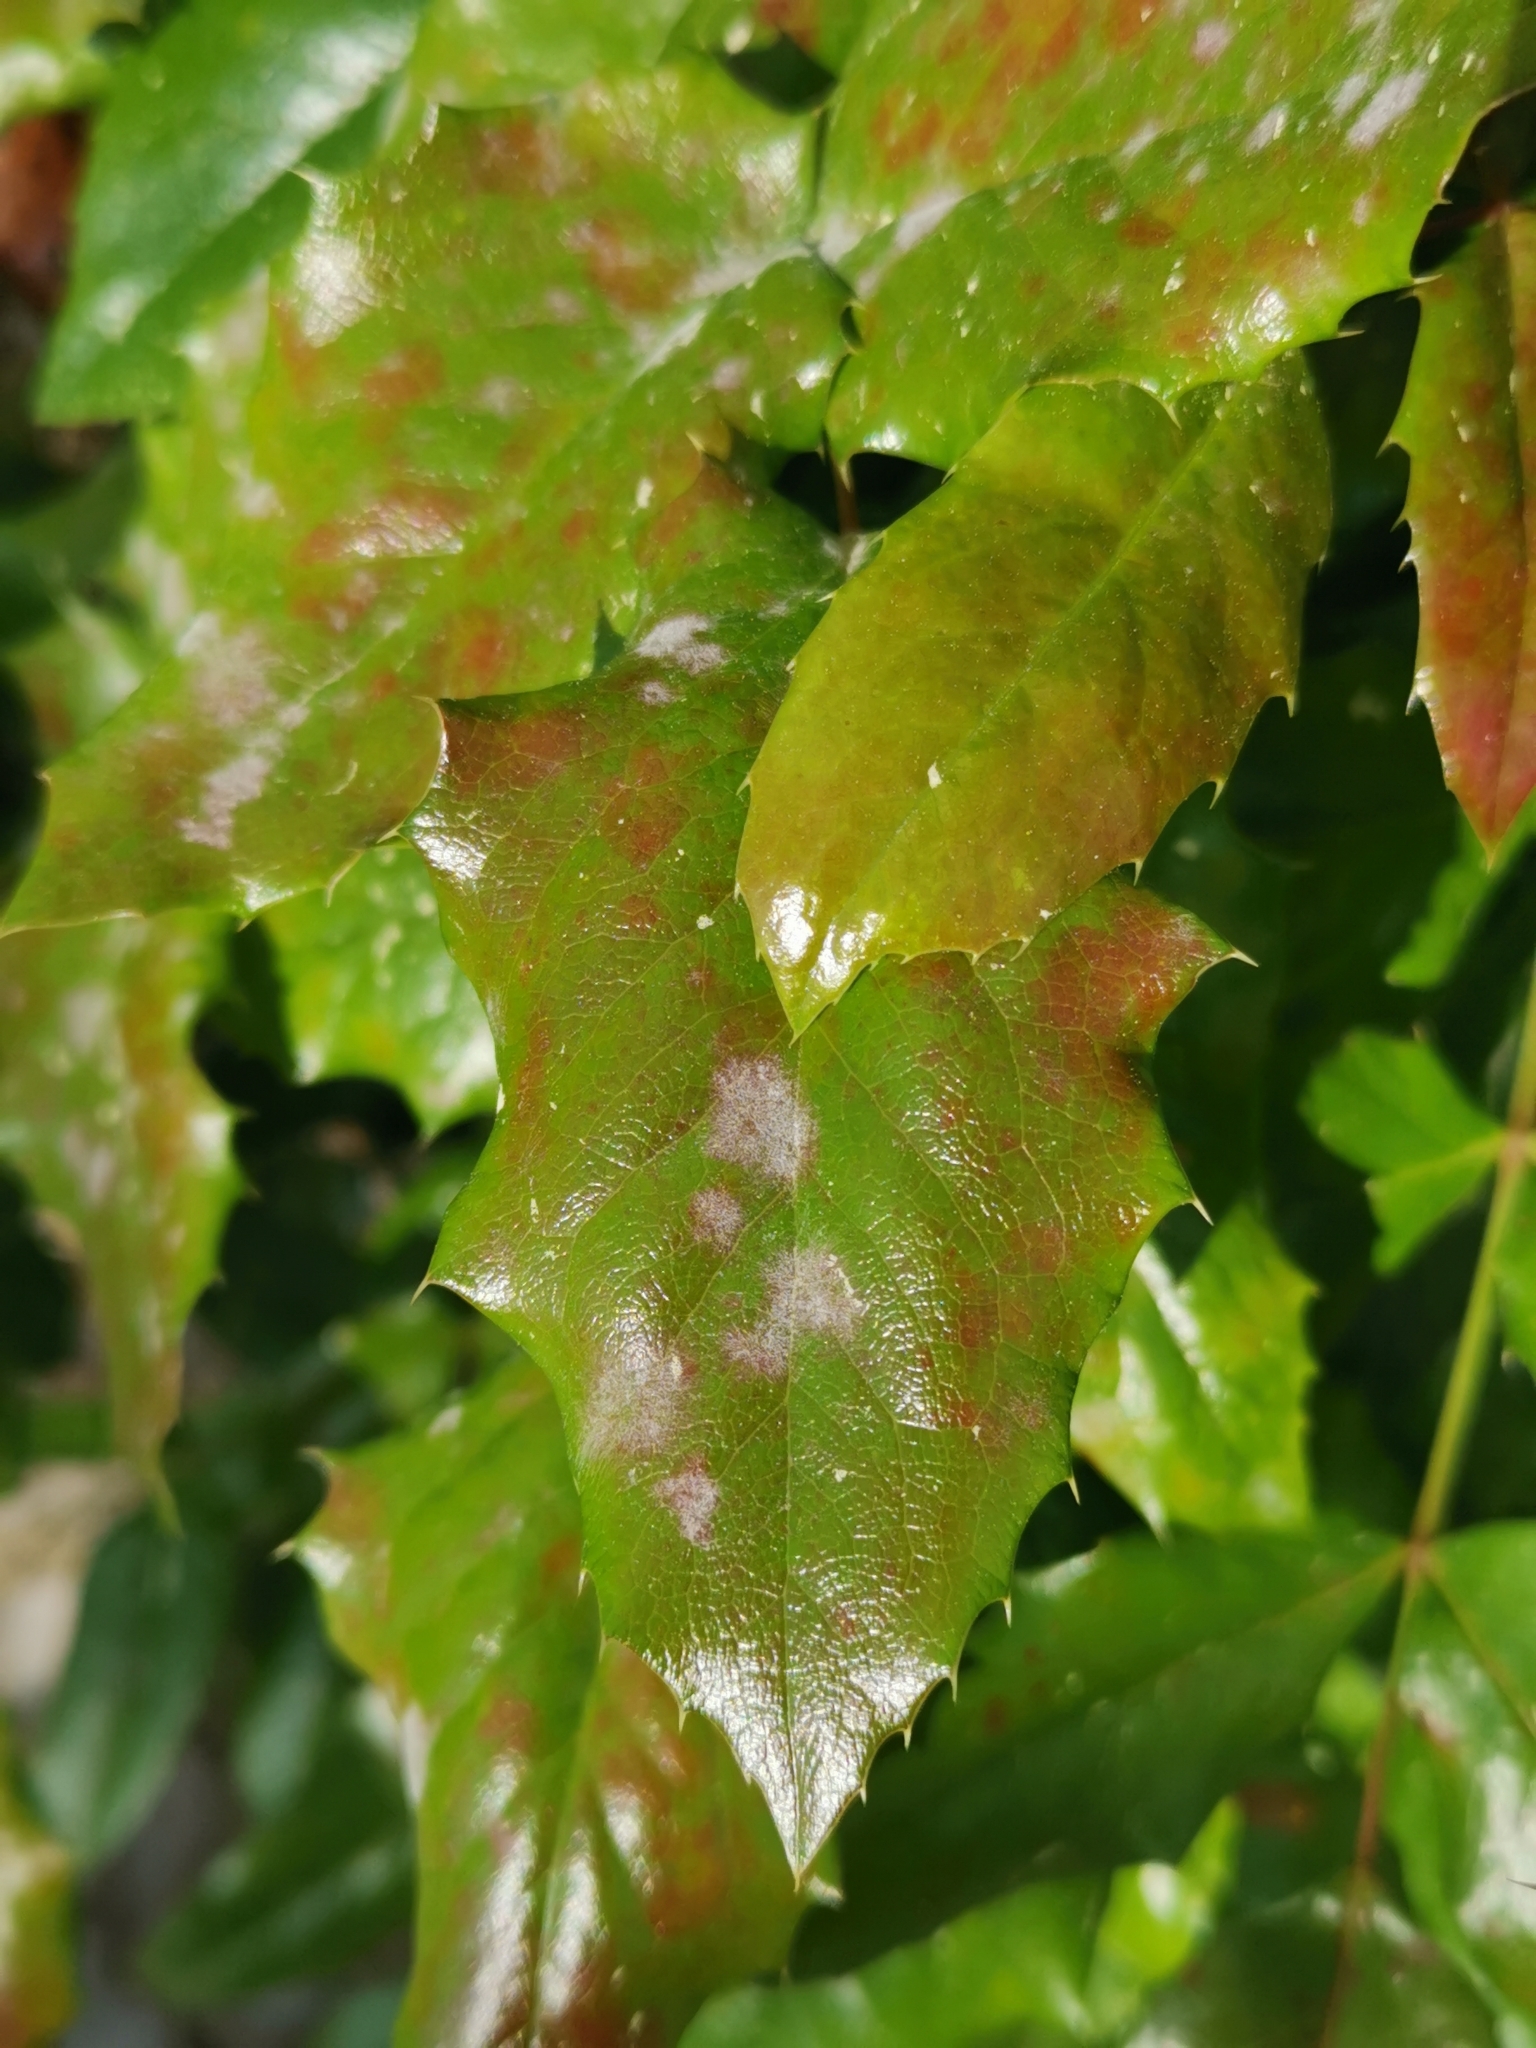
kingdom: Fungi
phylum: Ascomycota
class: Leotiomycetes
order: Helotiales
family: Erysiphaceae
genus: Erysiphe
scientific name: Erysiphe berberidis
